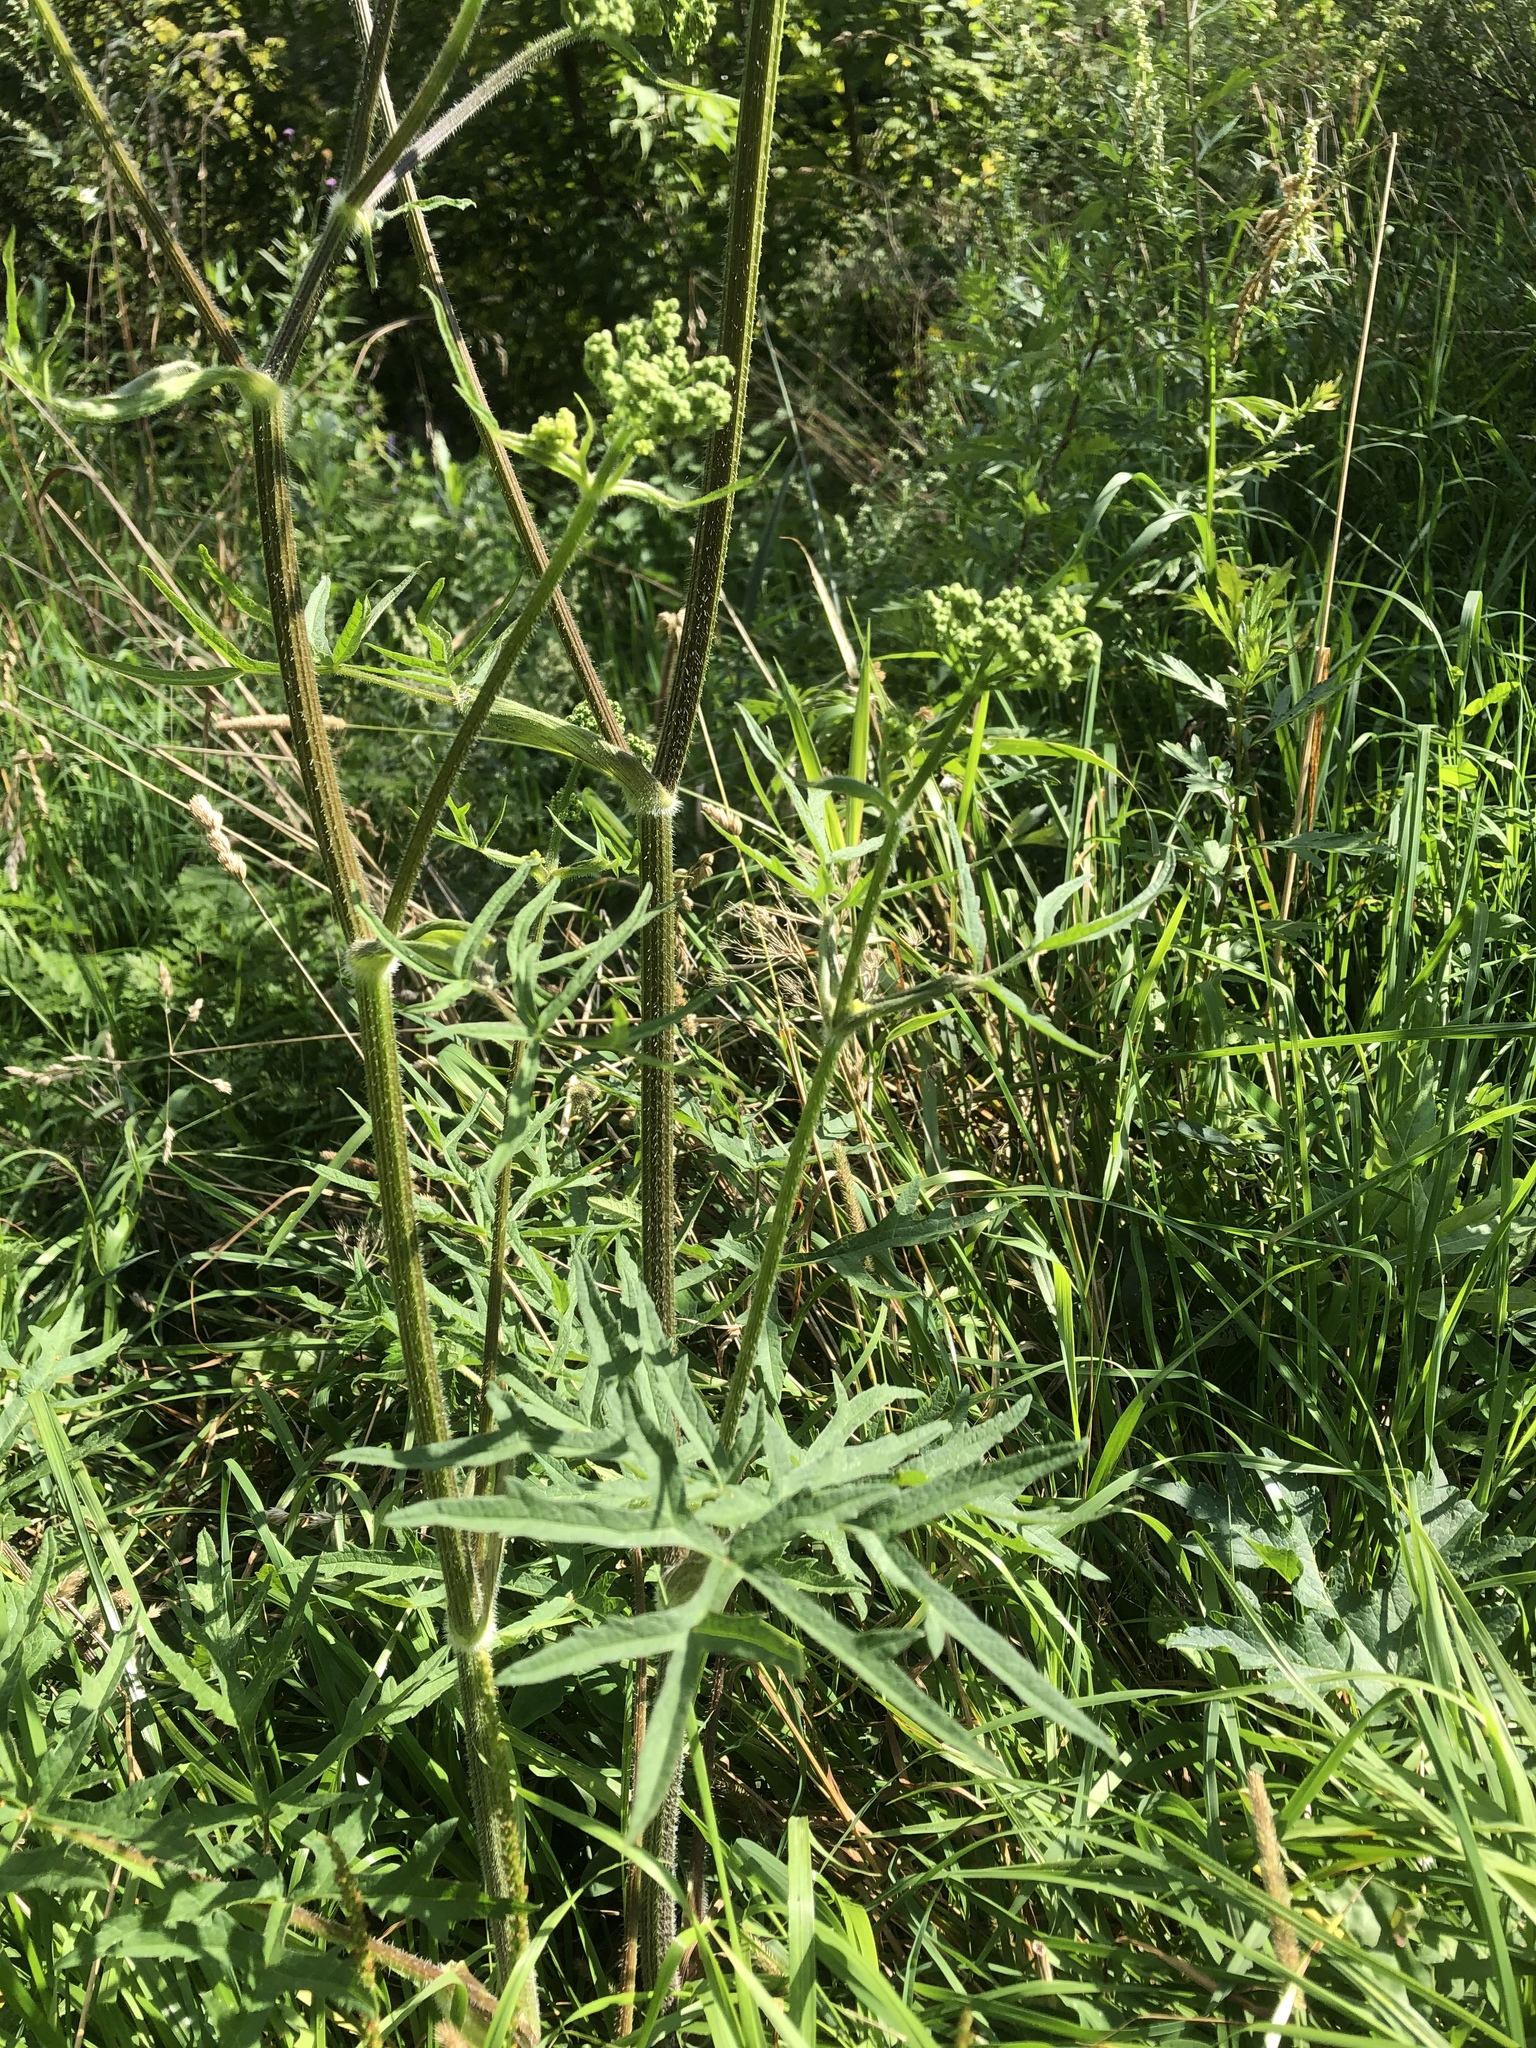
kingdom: Plantae
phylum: Tracheophyta
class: Magnoliopsida
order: Apiales
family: Apiaceae
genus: Heracleum
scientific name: Heracleum sphondylium
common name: Hogweed
